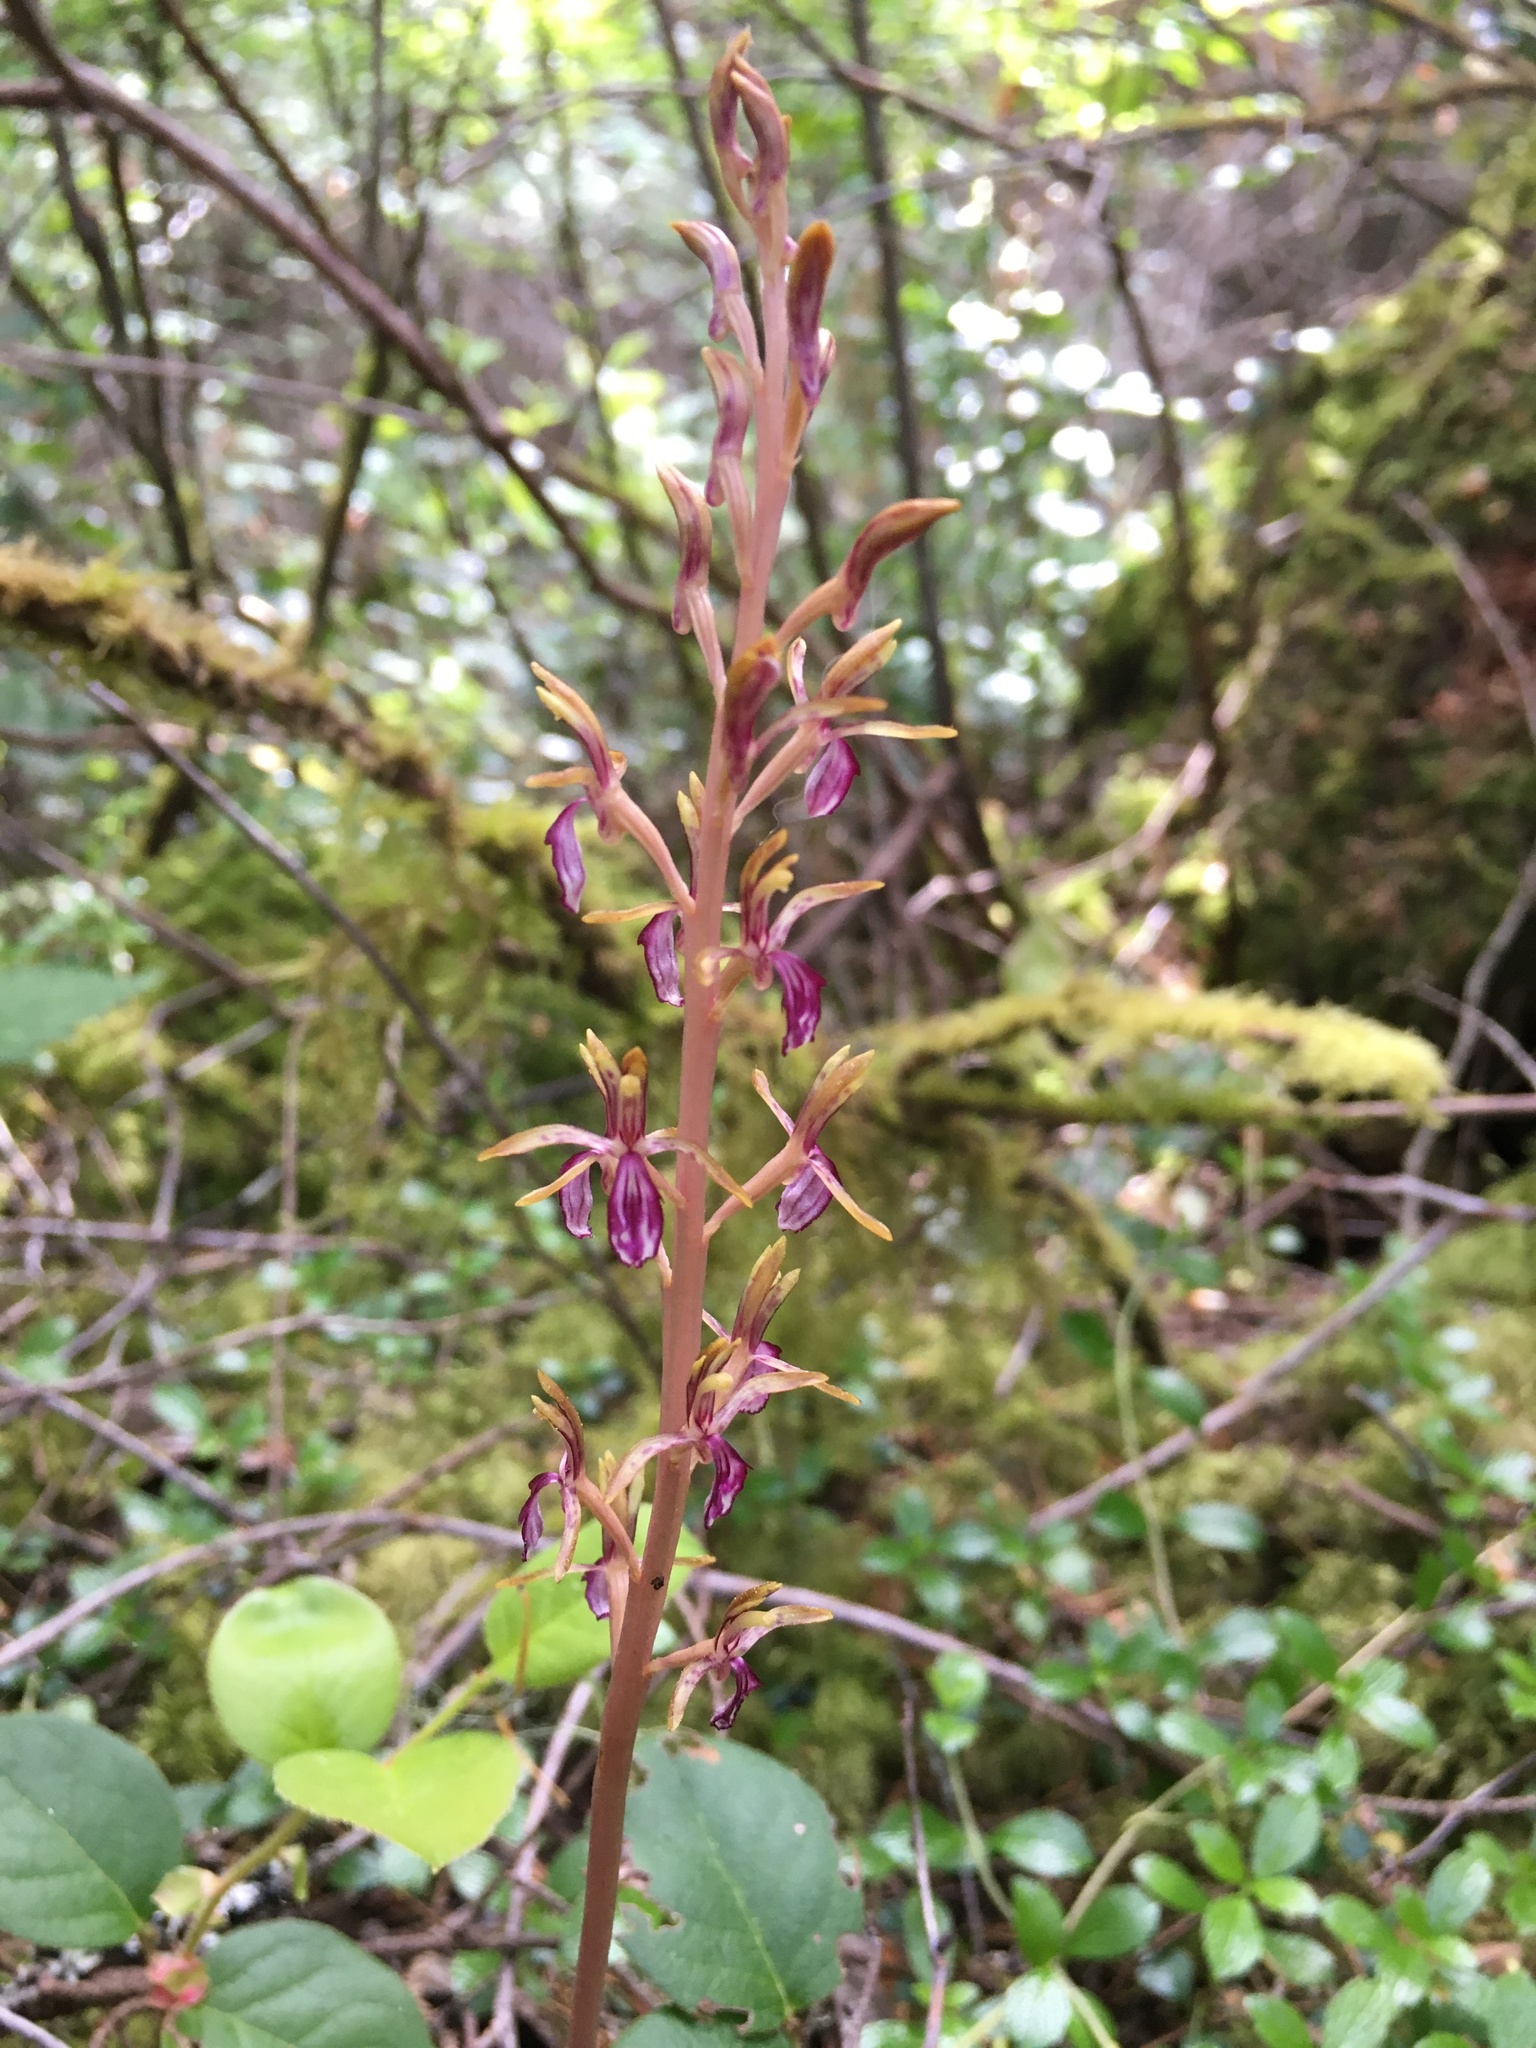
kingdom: Plantae
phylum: Tracheophyta
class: Liliopsida
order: Asparagales
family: Orchidaceae
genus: Corallorhiza
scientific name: Corallorhiza mertensiana
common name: Pacific coralroot
